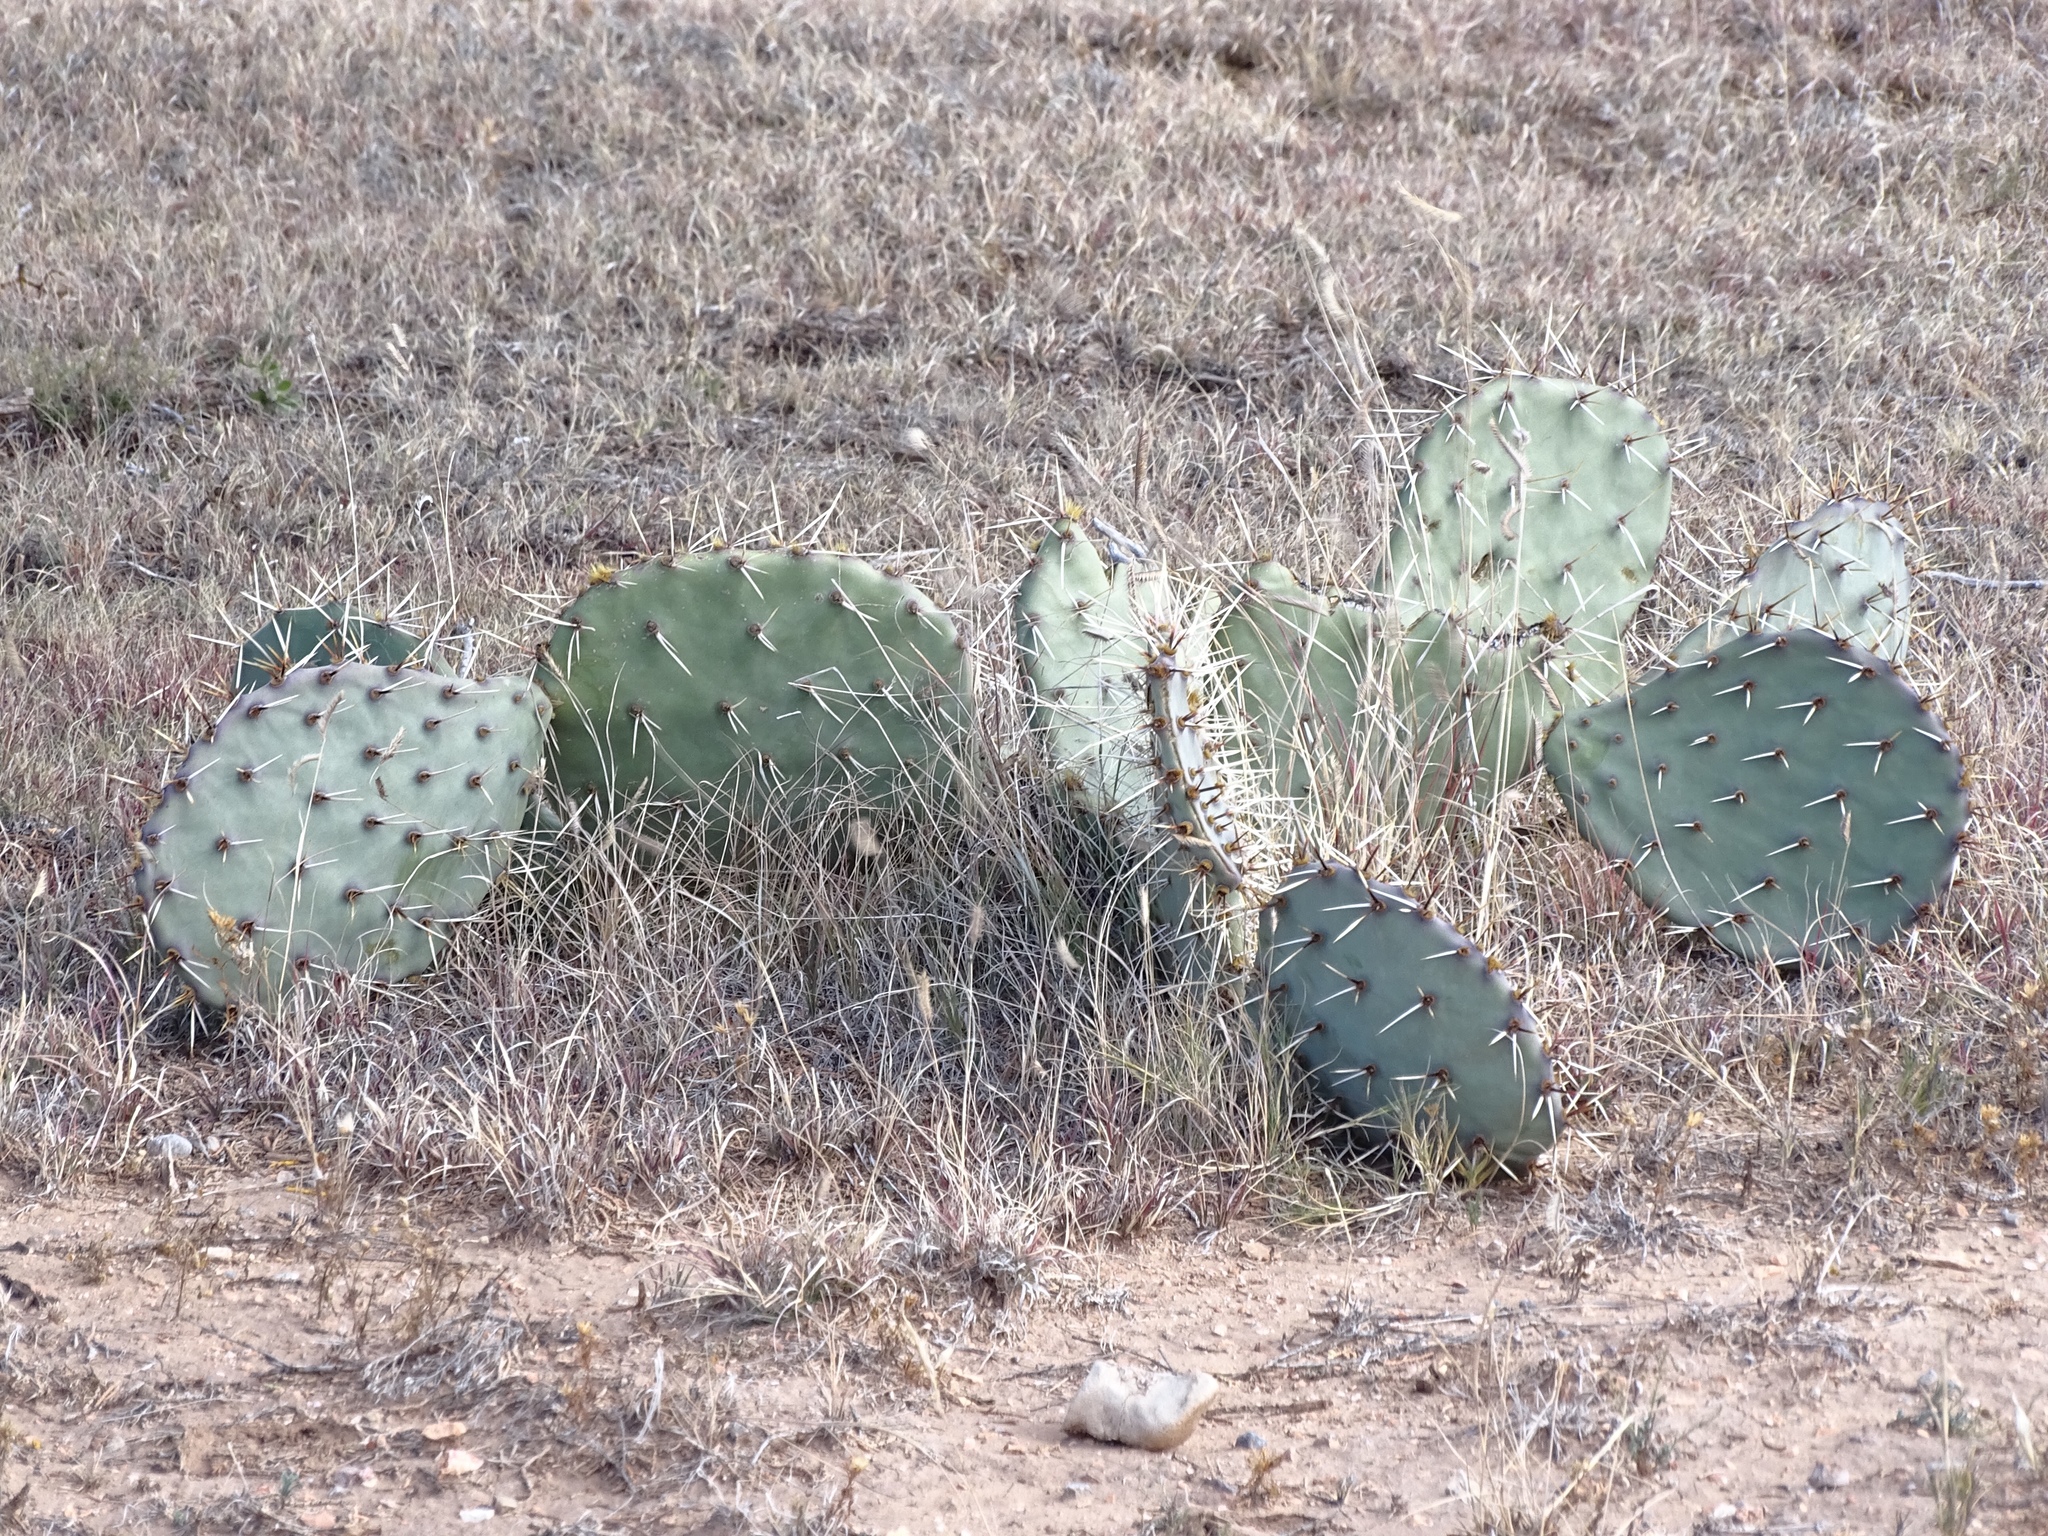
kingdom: Plantae
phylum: Tracheophyta
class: Magnoliopsida
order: Caryophyllales
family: Cactaceae
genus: Opuntia
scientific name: Opuntia phaeacantha
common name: New mexico prickly-pear
